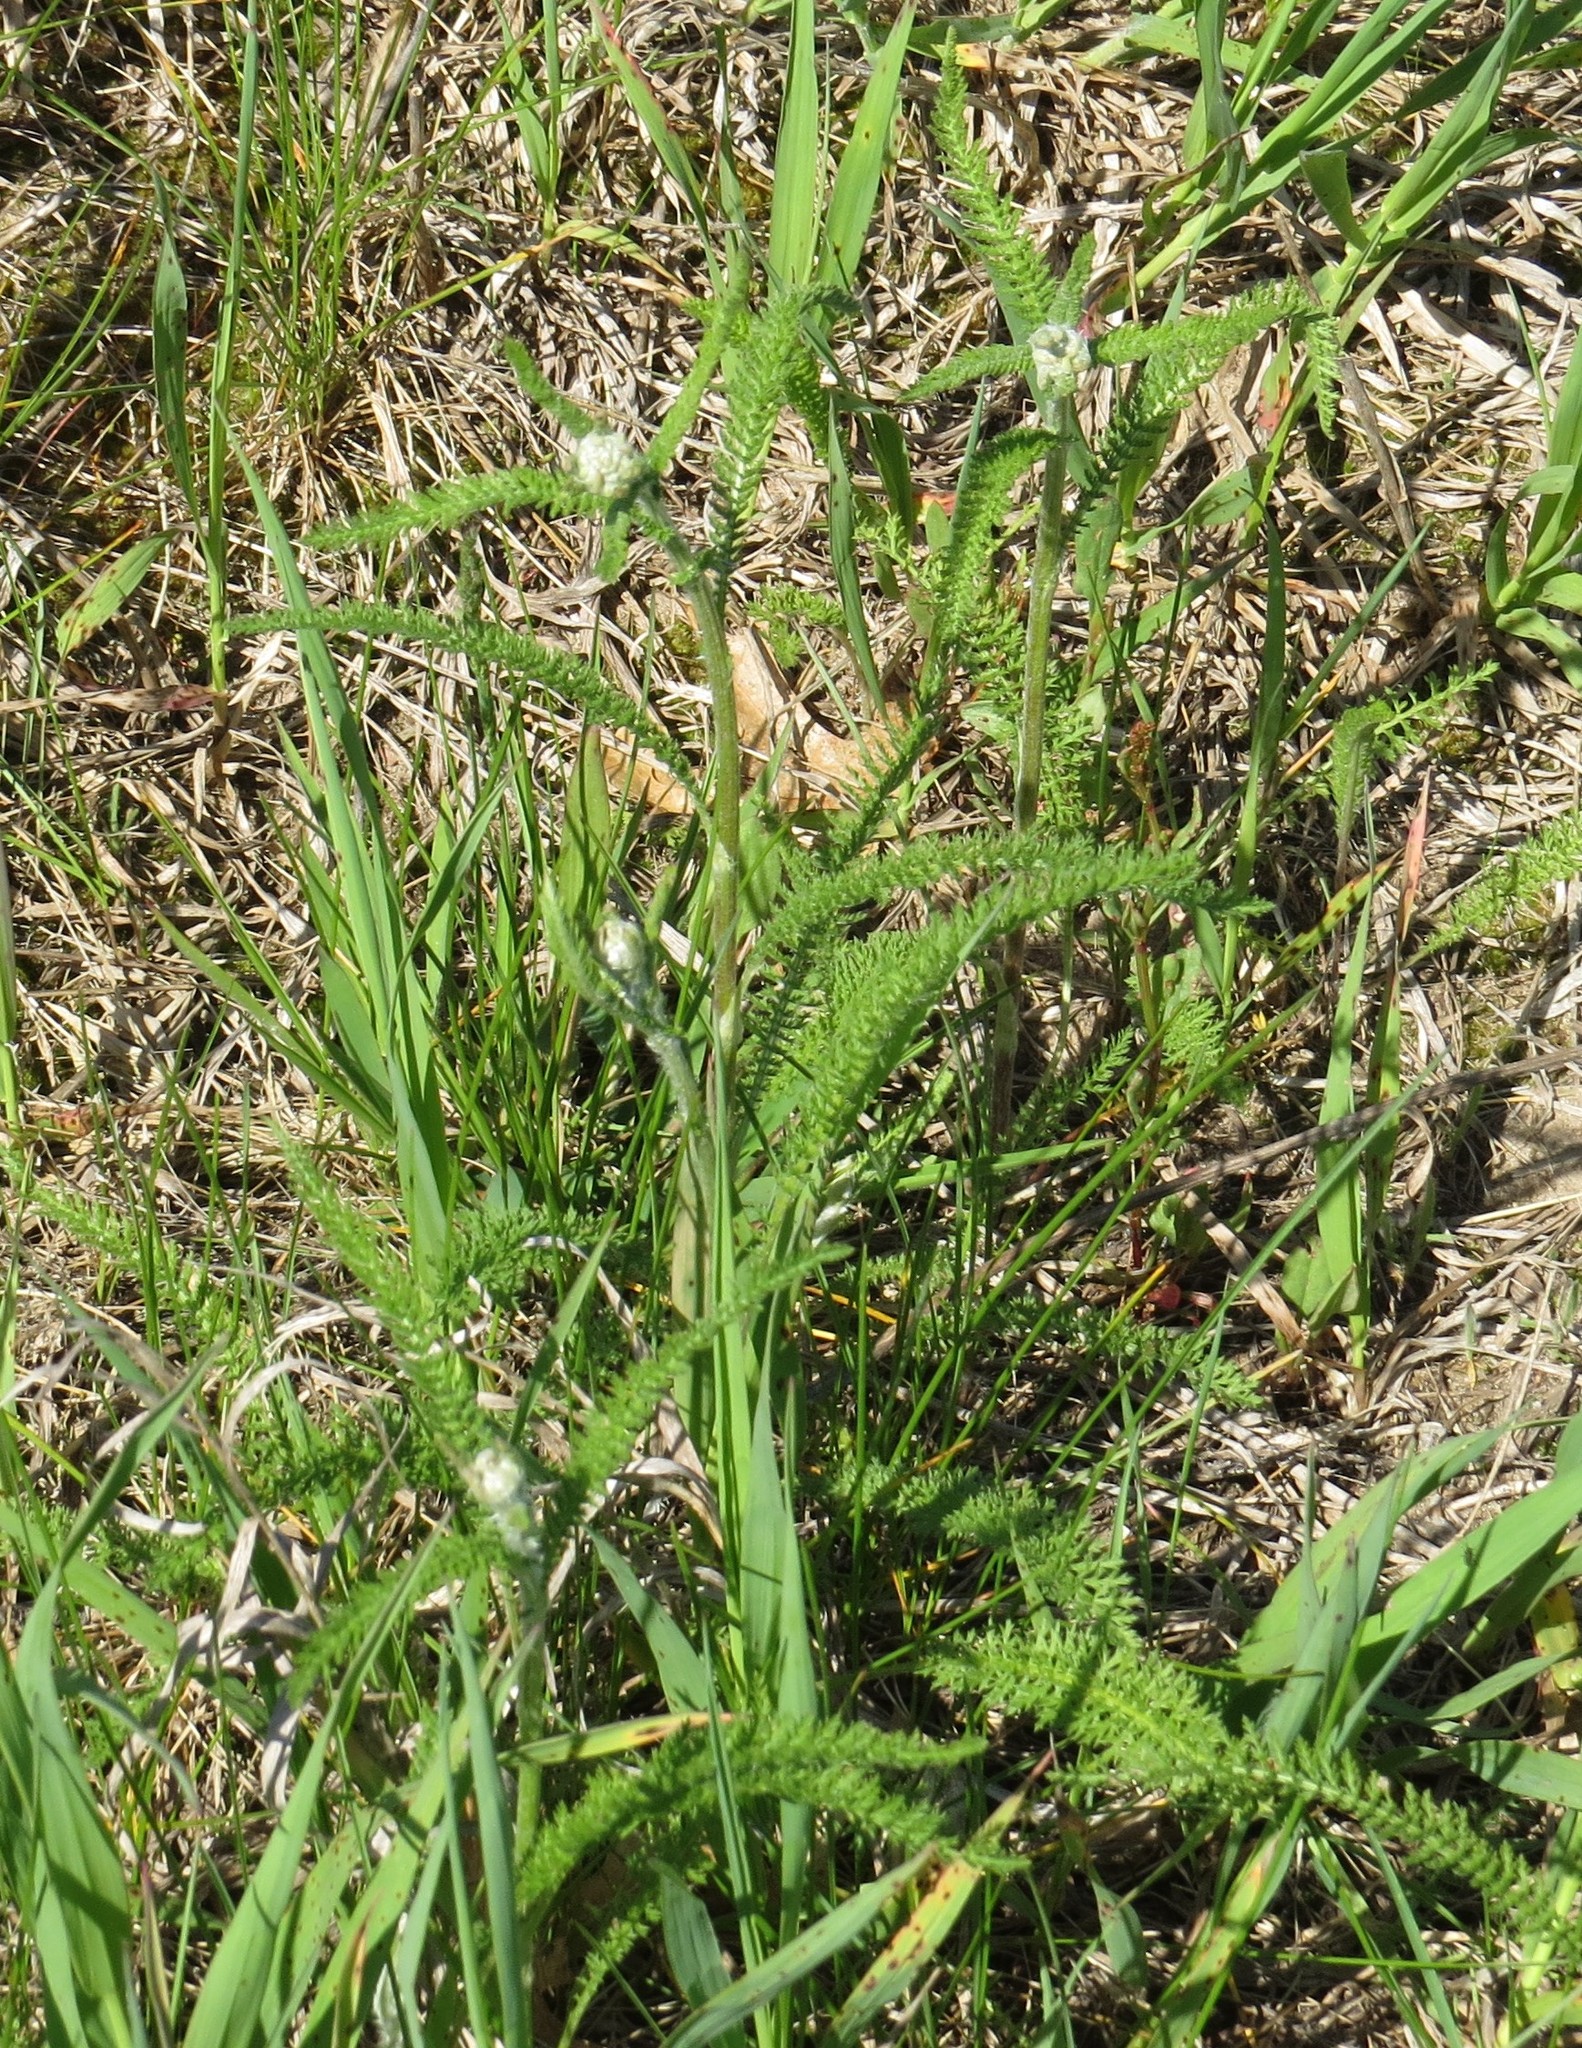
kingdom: Plantae
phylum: Tracheophyta
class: Magnoliopsida
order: Asterales
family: Asteraceae
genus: Achillea
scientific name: Achillea millefolium
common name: Yarrow
